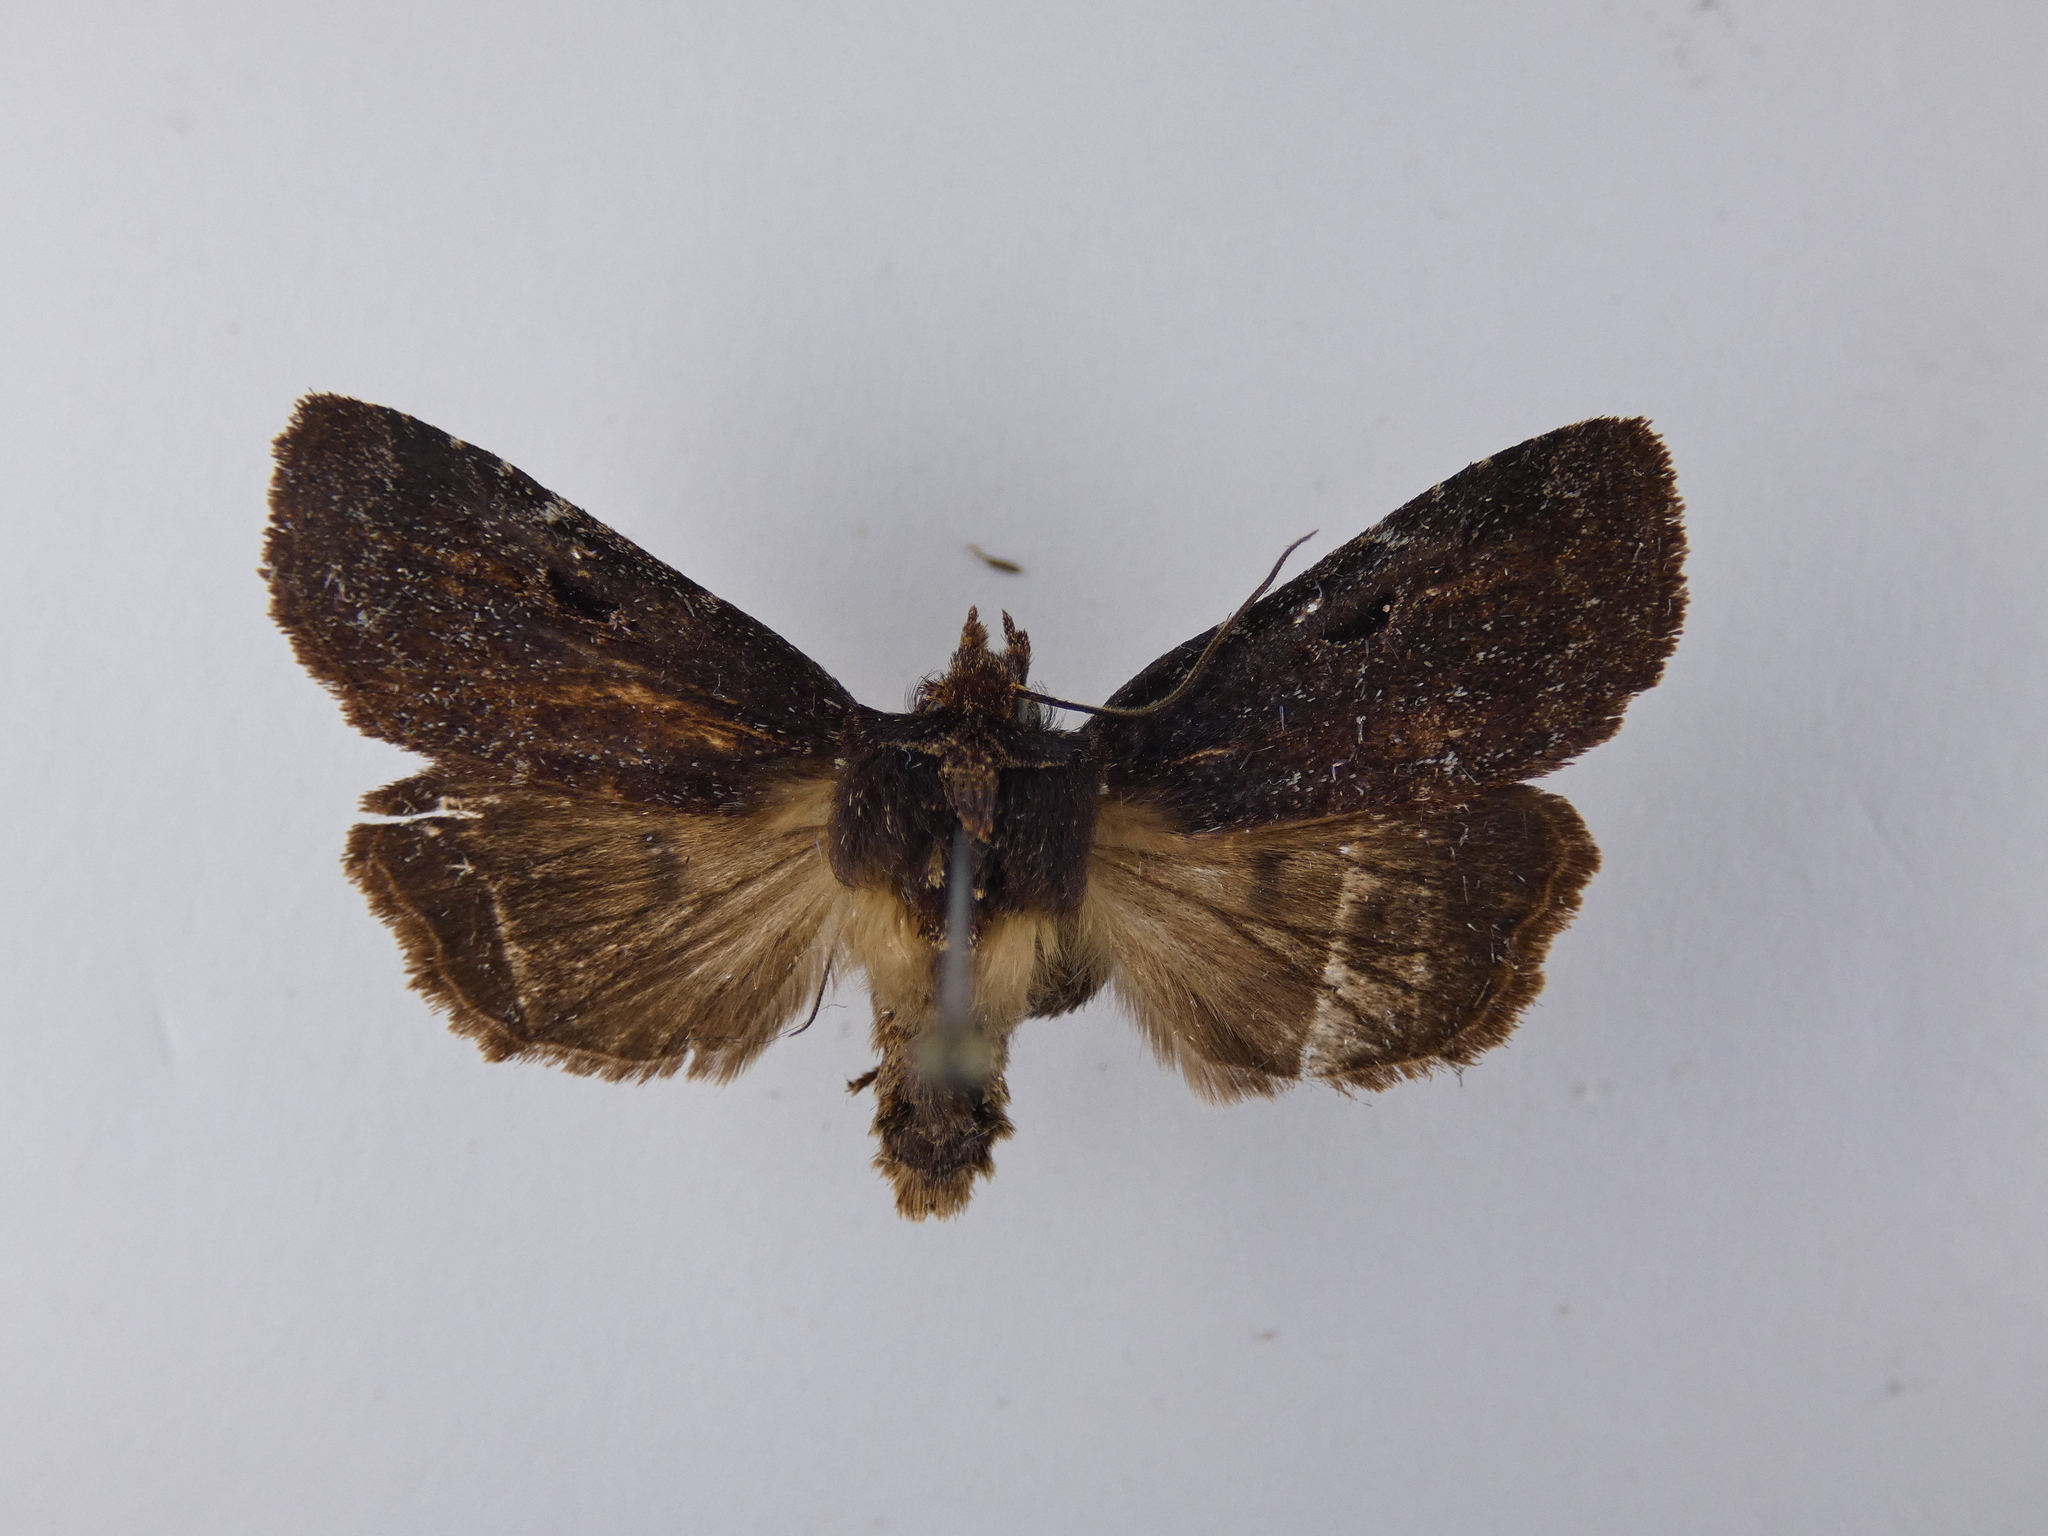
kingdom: Animalia
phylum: Arthropoda
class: Insecta
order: Lepidoptera
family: Noctuidae
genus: Austramathes
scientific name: Austramathes purpurea
